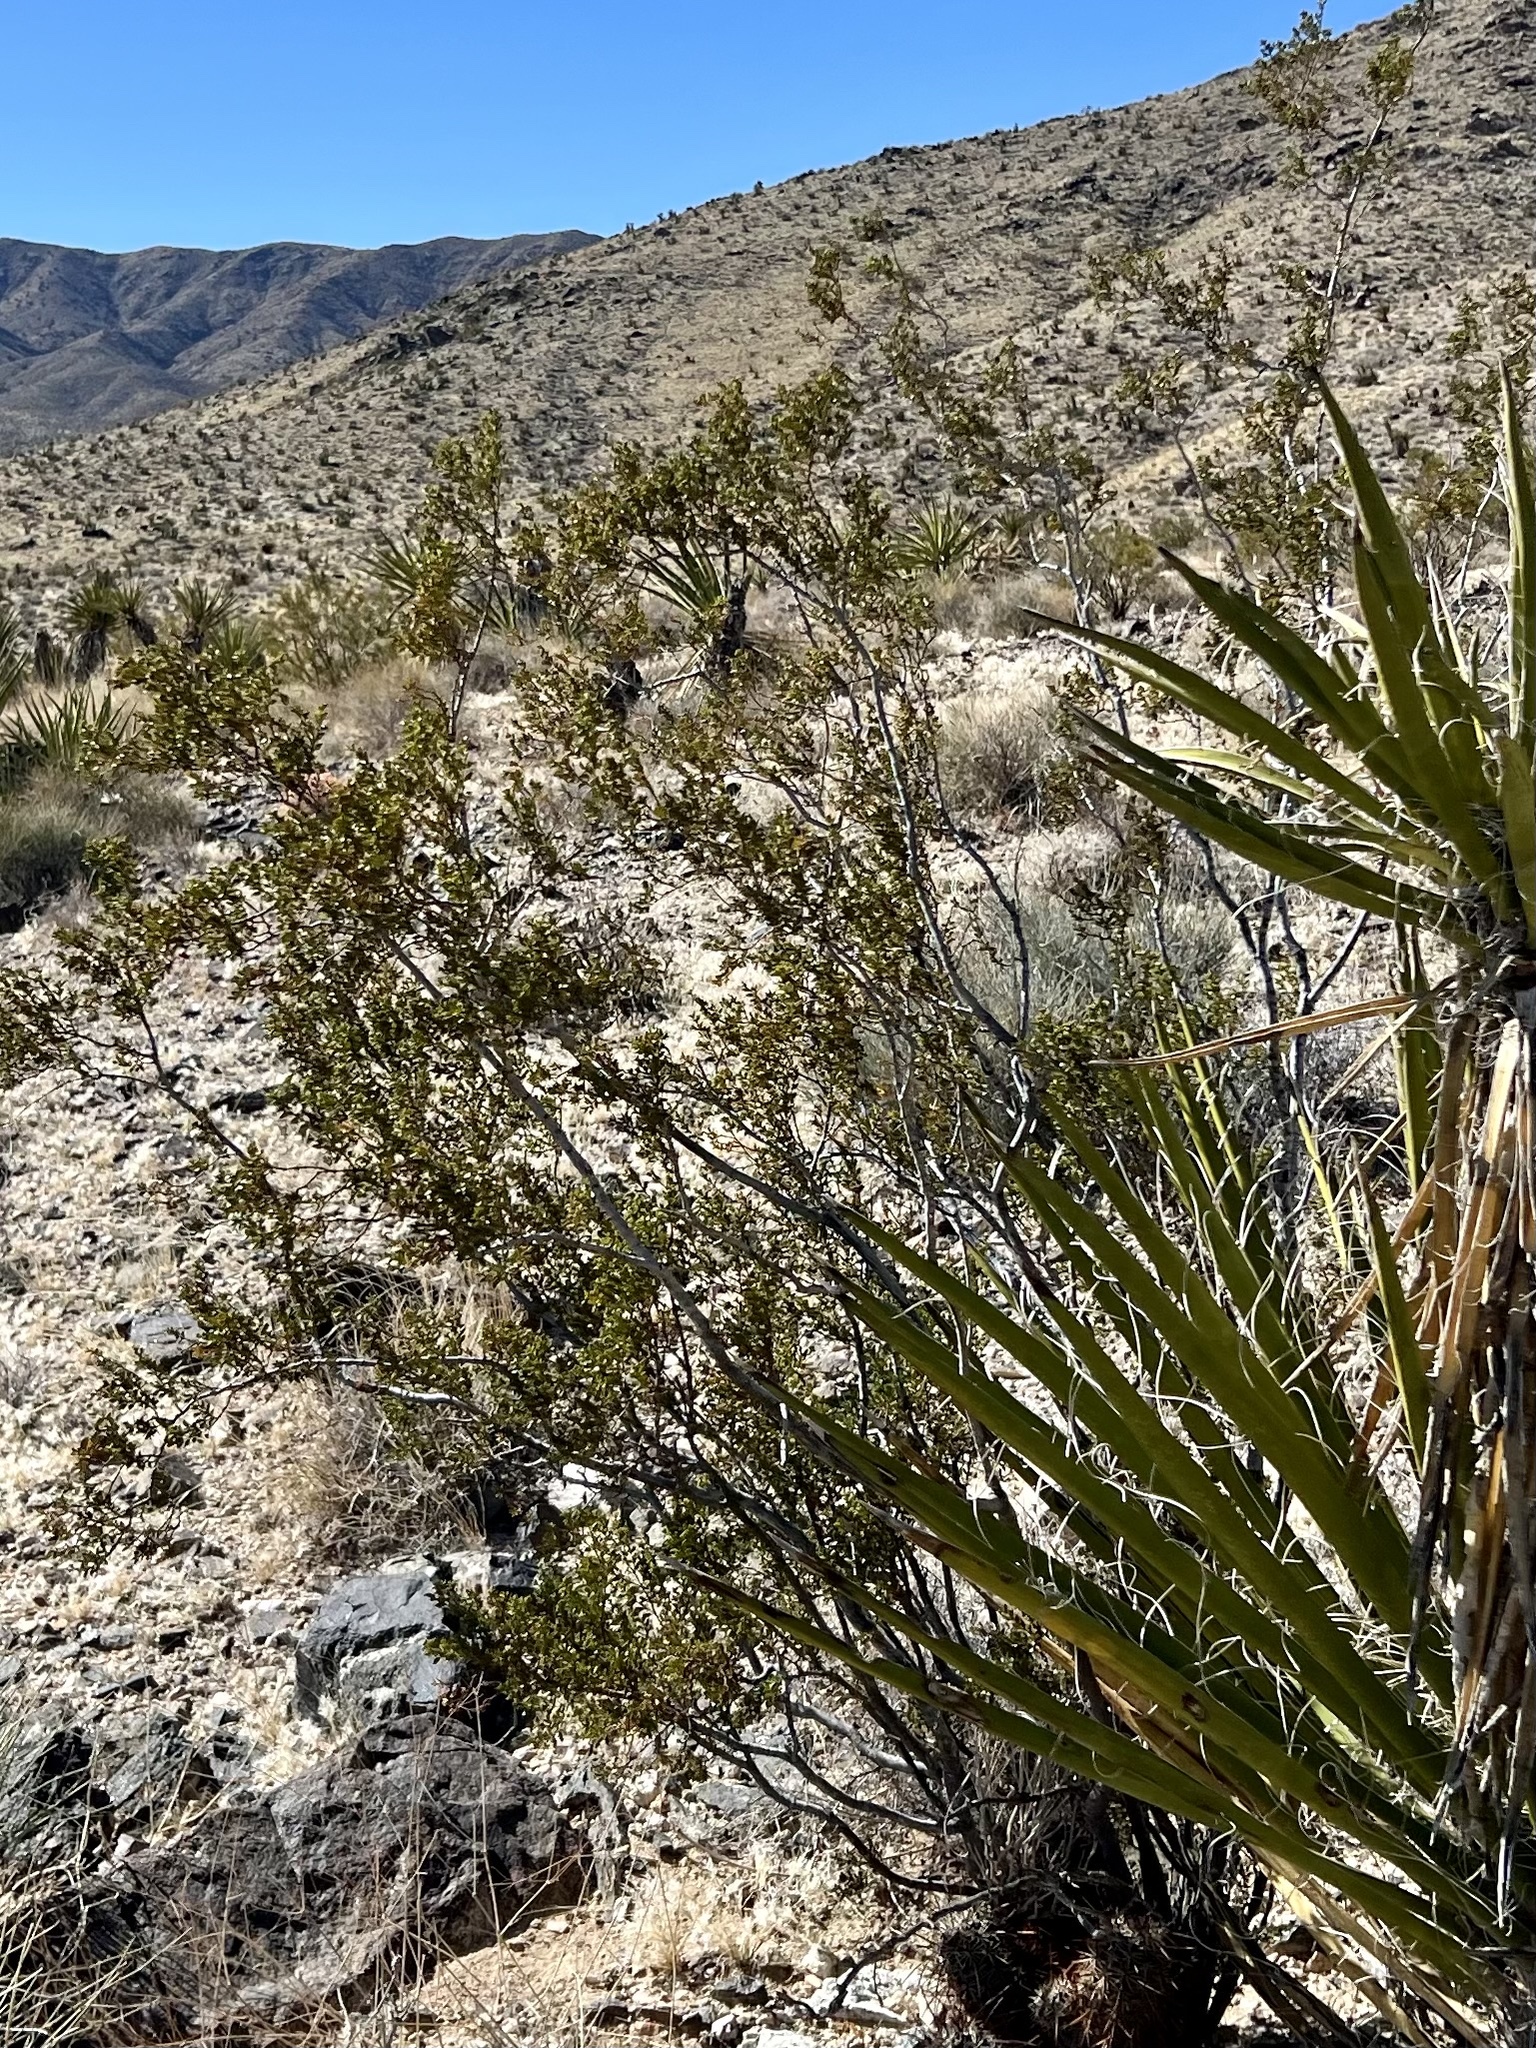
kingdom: Plantae
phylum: Tracheophyta
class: Magnoliopsida
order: Zygophyllales
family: Zygophyllaceae
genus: Larrea
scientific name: Larrea tridentata
